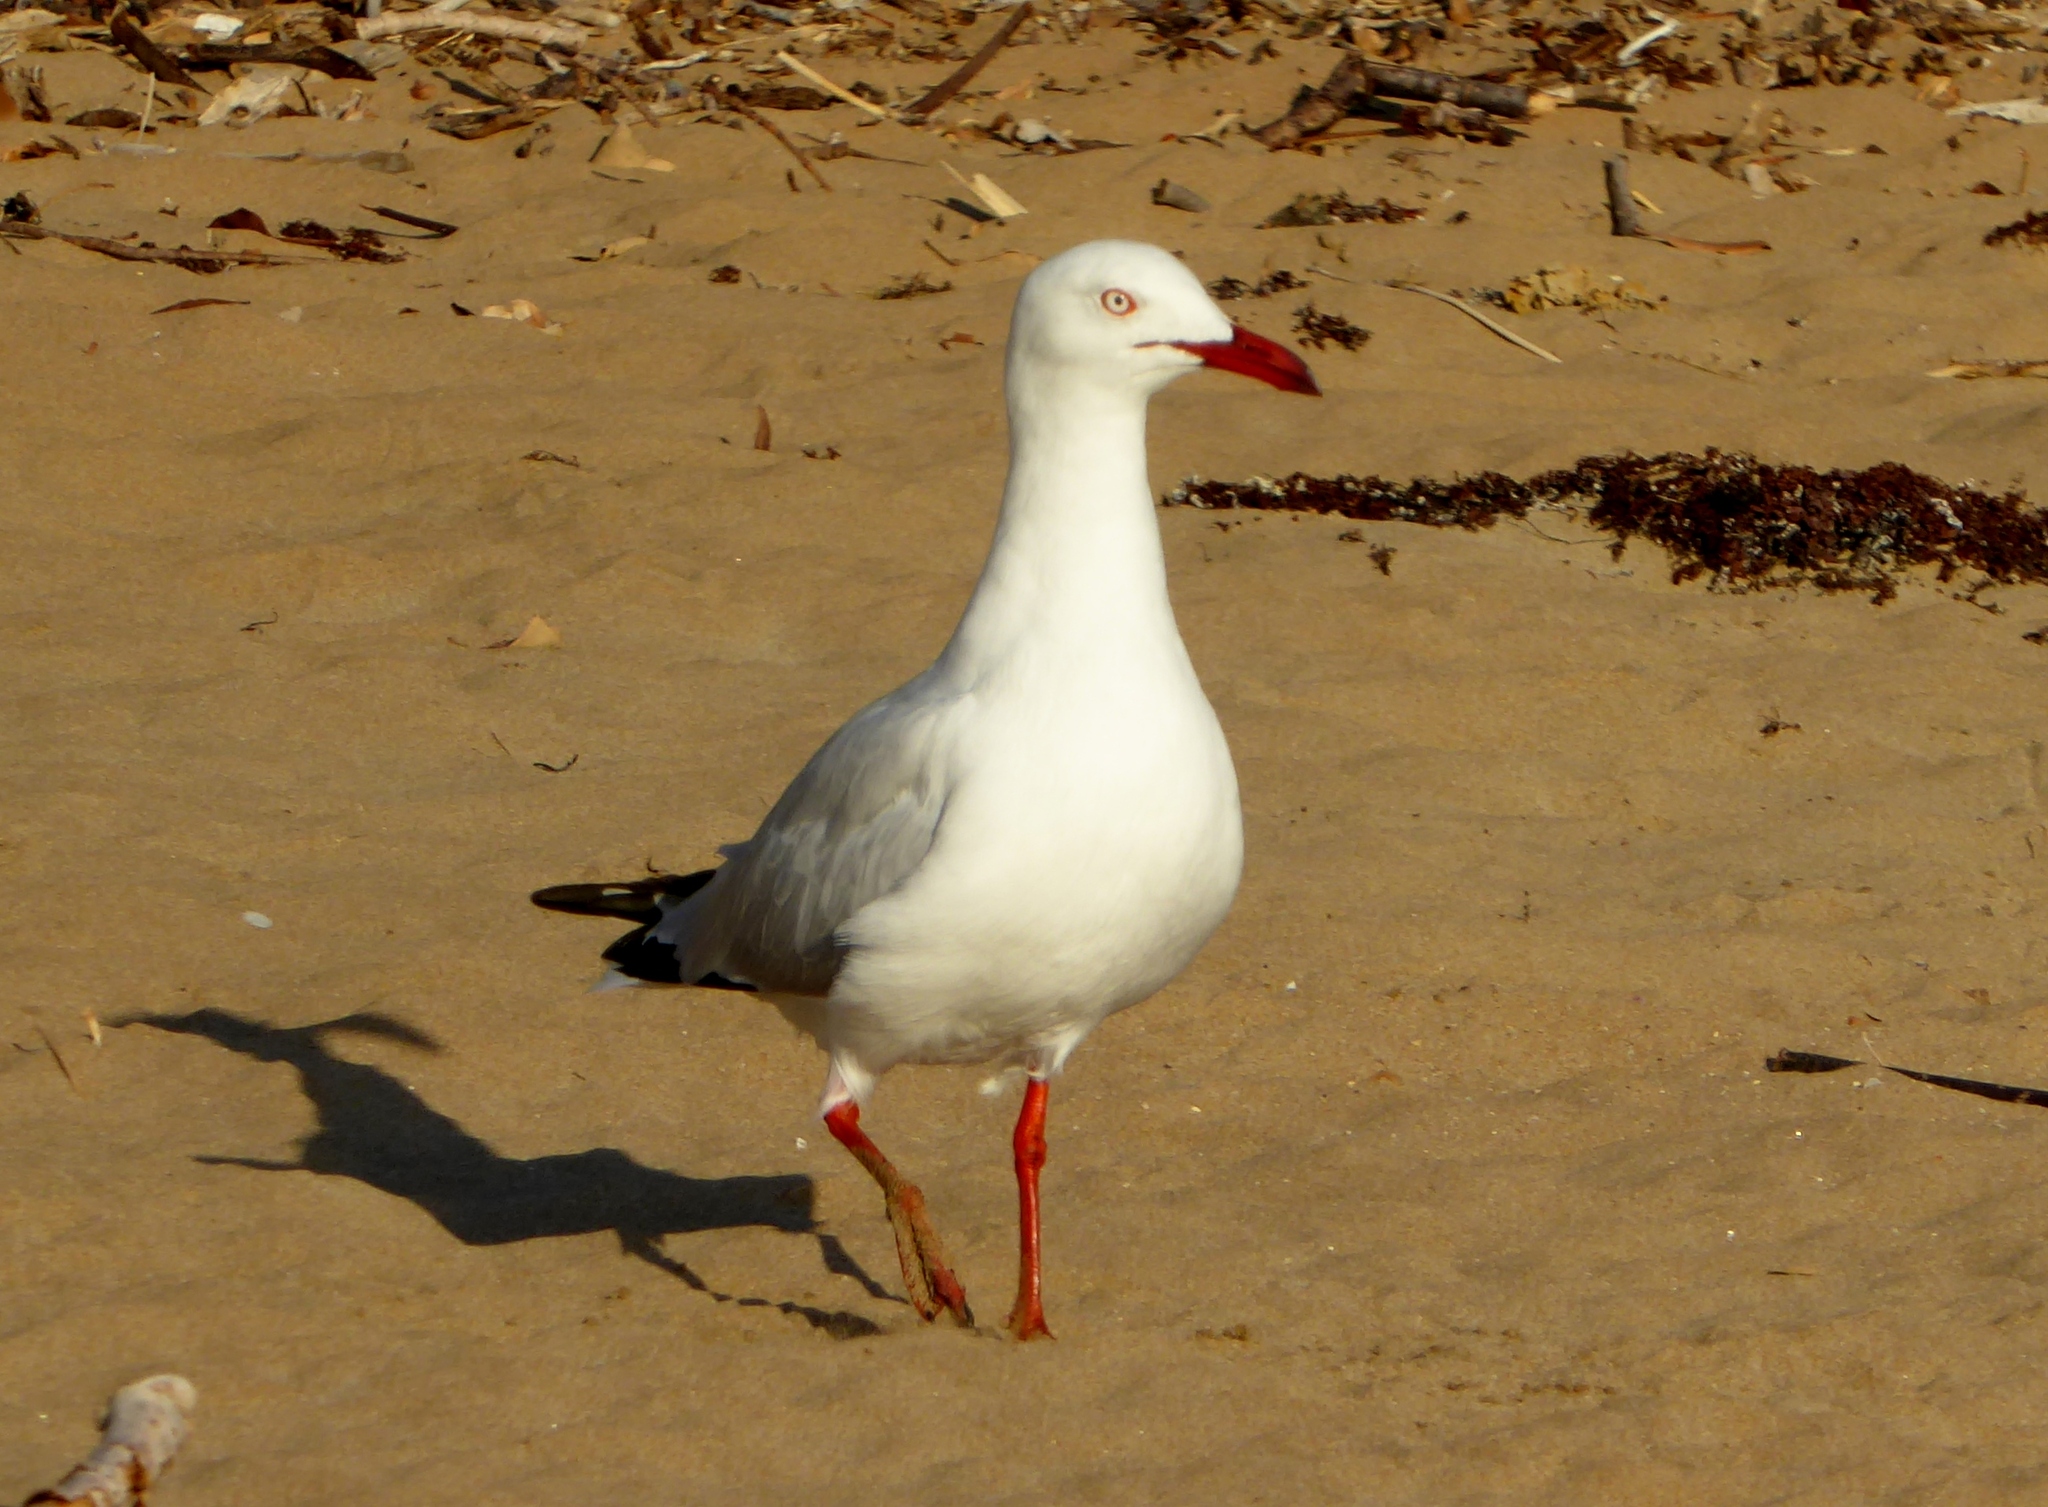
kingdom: Animalia
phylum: Chordata
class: Aves
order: Charadriiformes
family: Laridae
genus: Chroicocephalus
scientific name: Chroicocephalus novaehollandiae
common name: Silver gull
